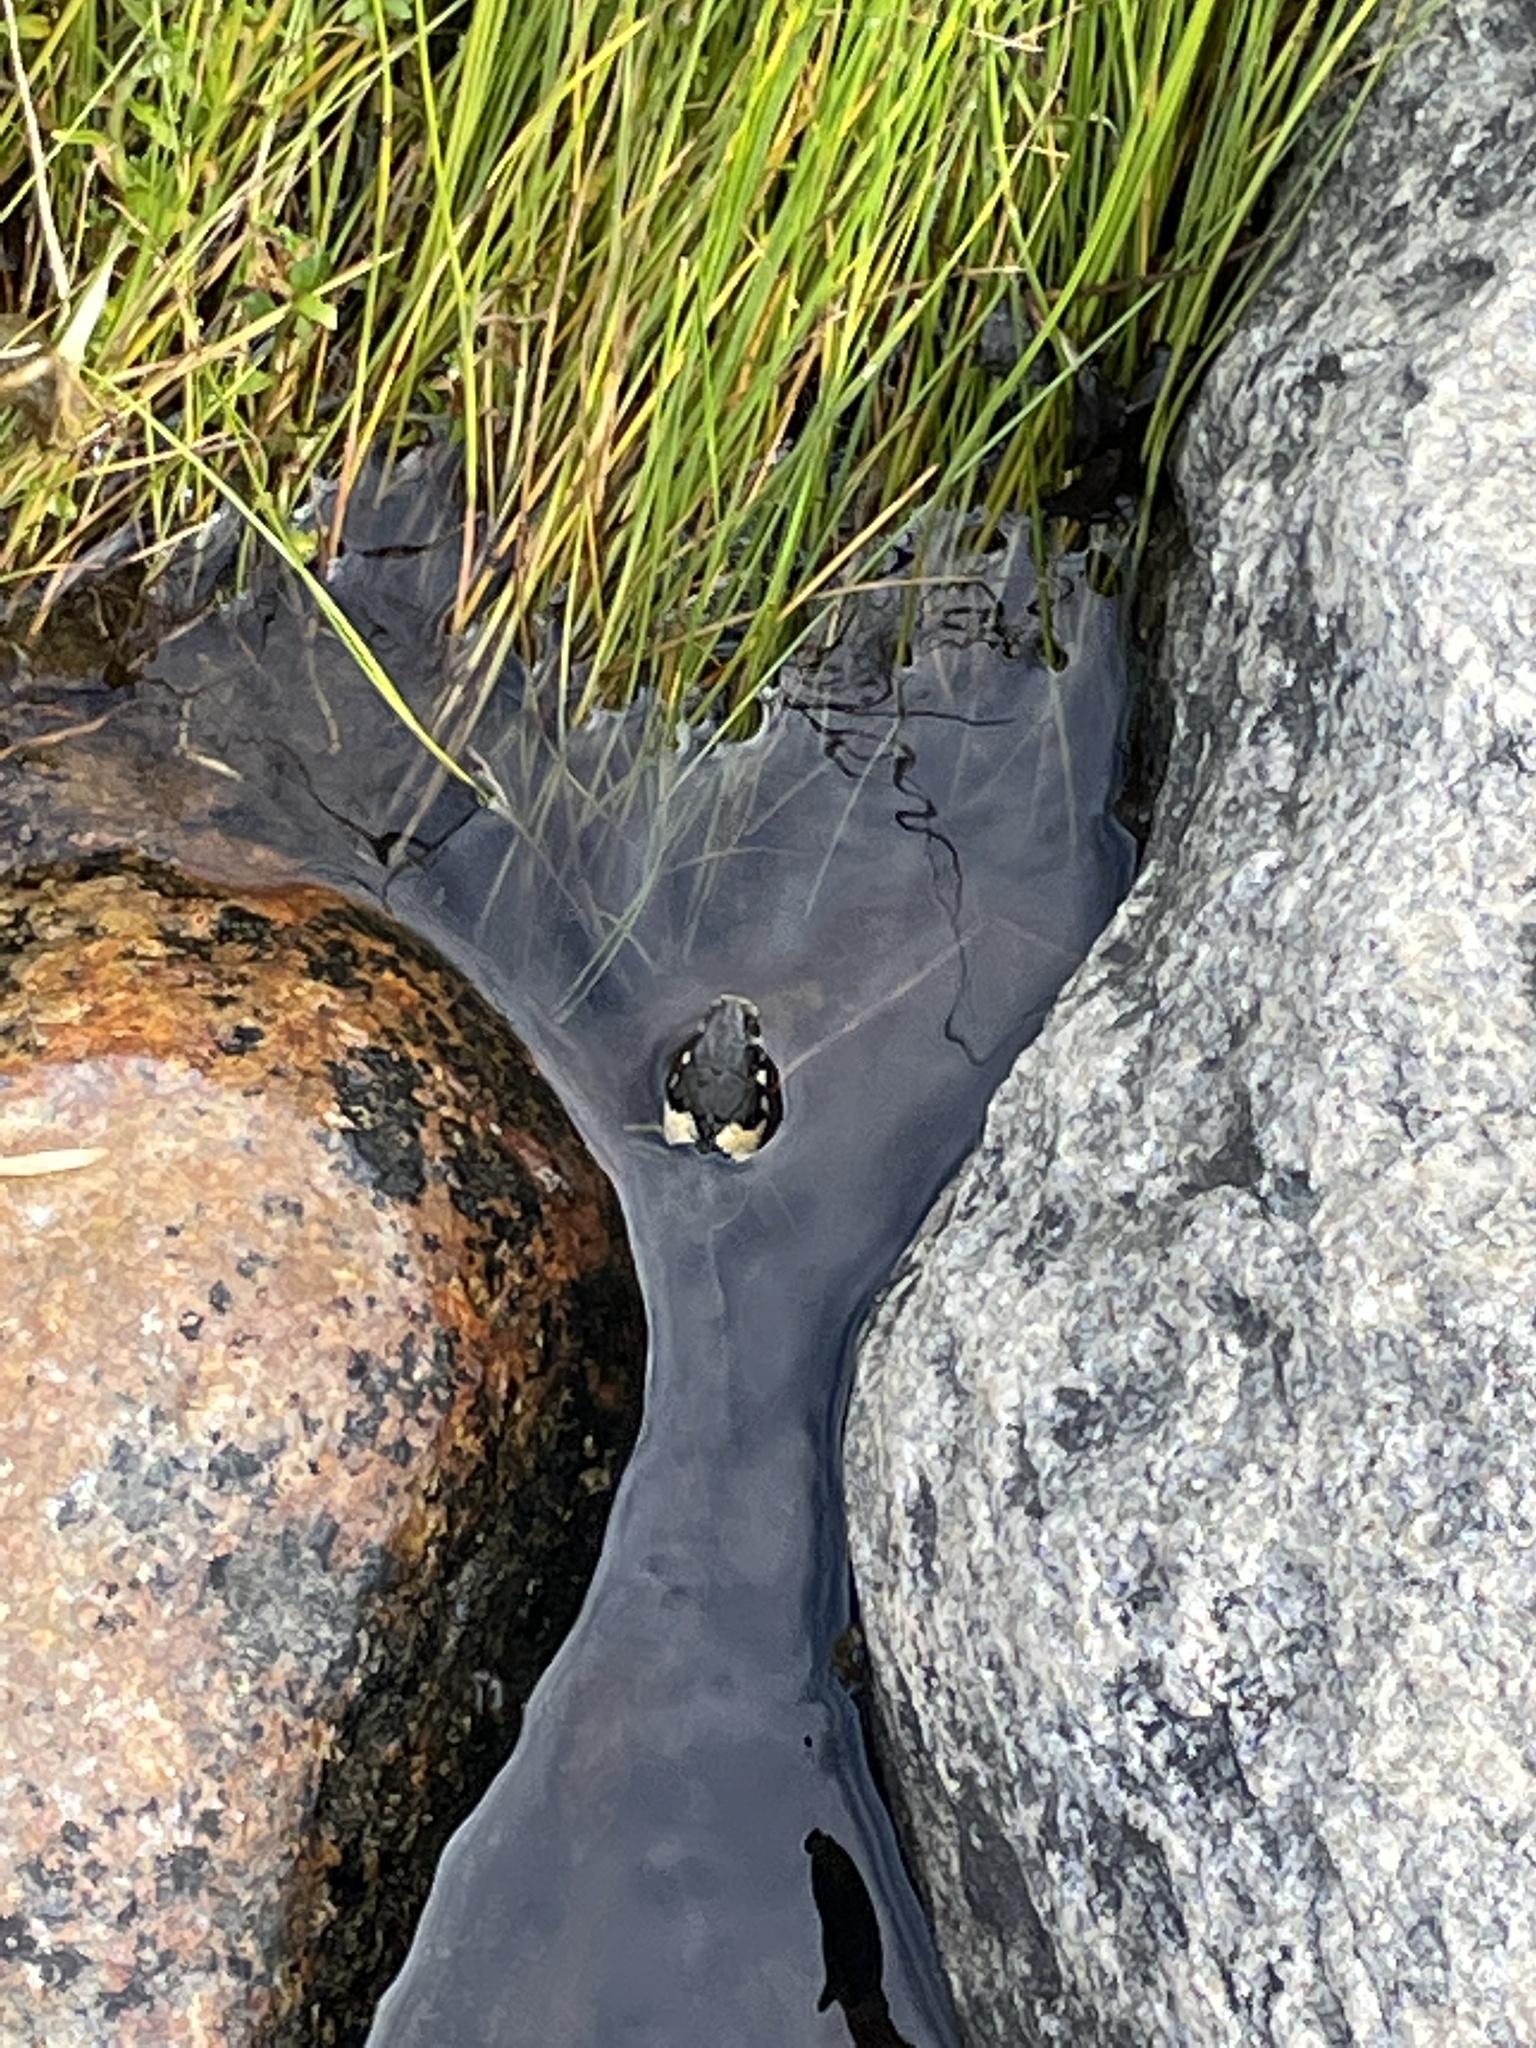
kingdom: Animalia
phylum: Chordata
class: Squamata
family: Colubridae
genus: Natrix
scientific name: Natrix natrix
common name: Grass snake
